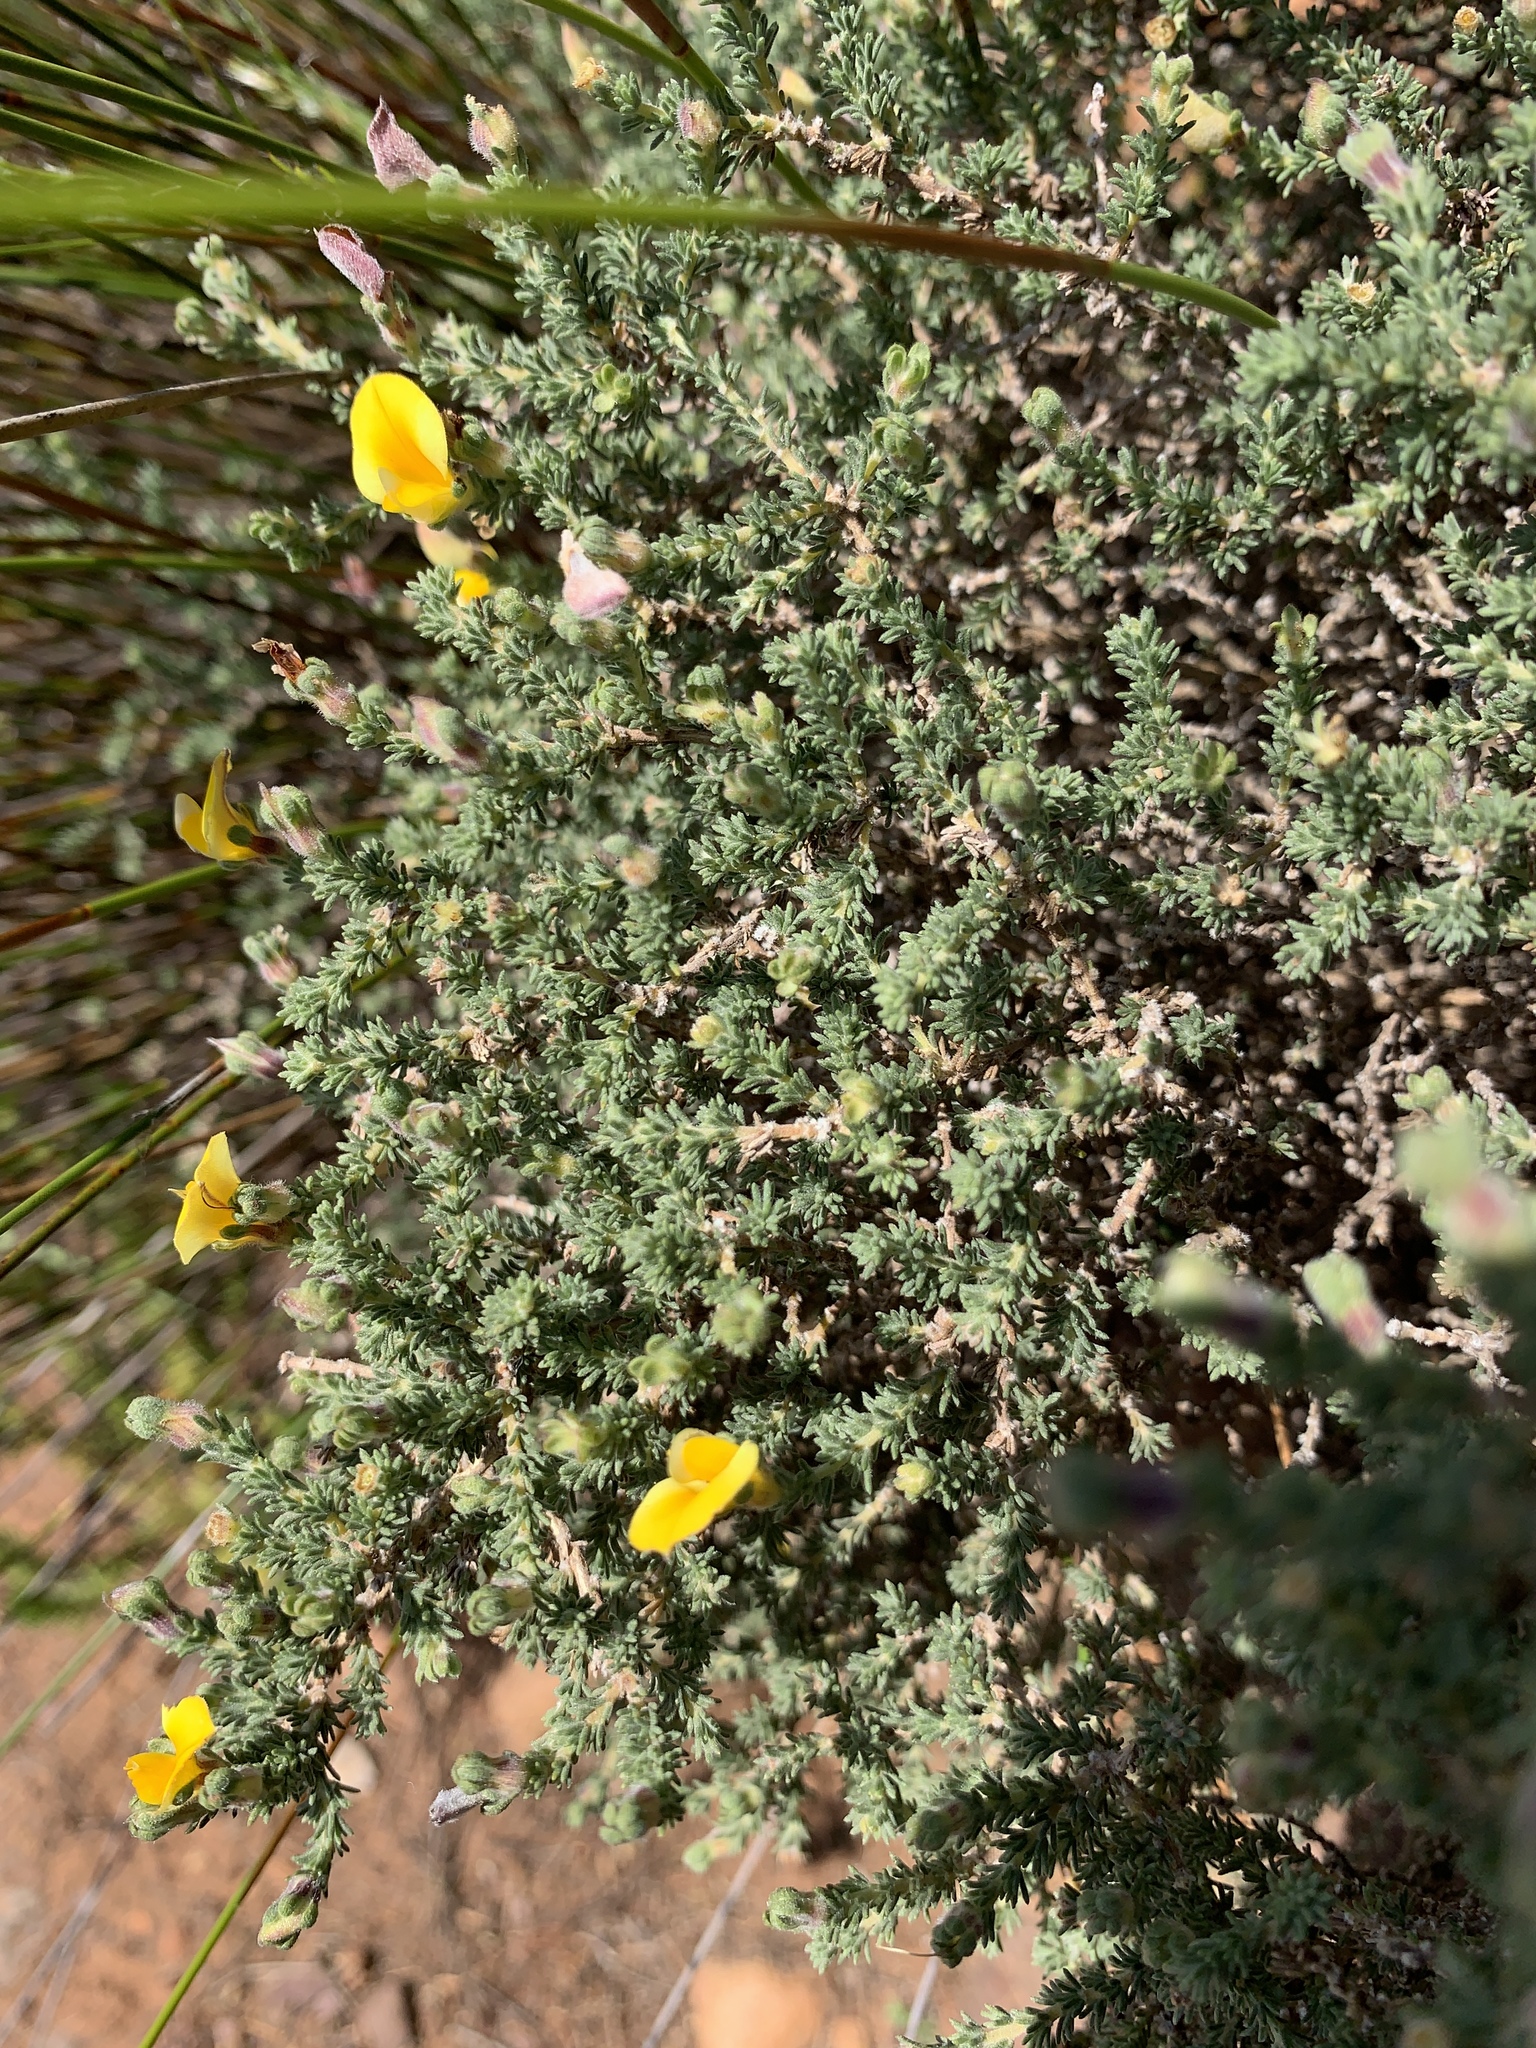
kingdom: Plantae
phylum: Tracheophyta
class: Magnoliopsida
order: Fabales
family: Fabaceae
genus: Aspalathus
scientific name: Aspalathus cymbiformis
